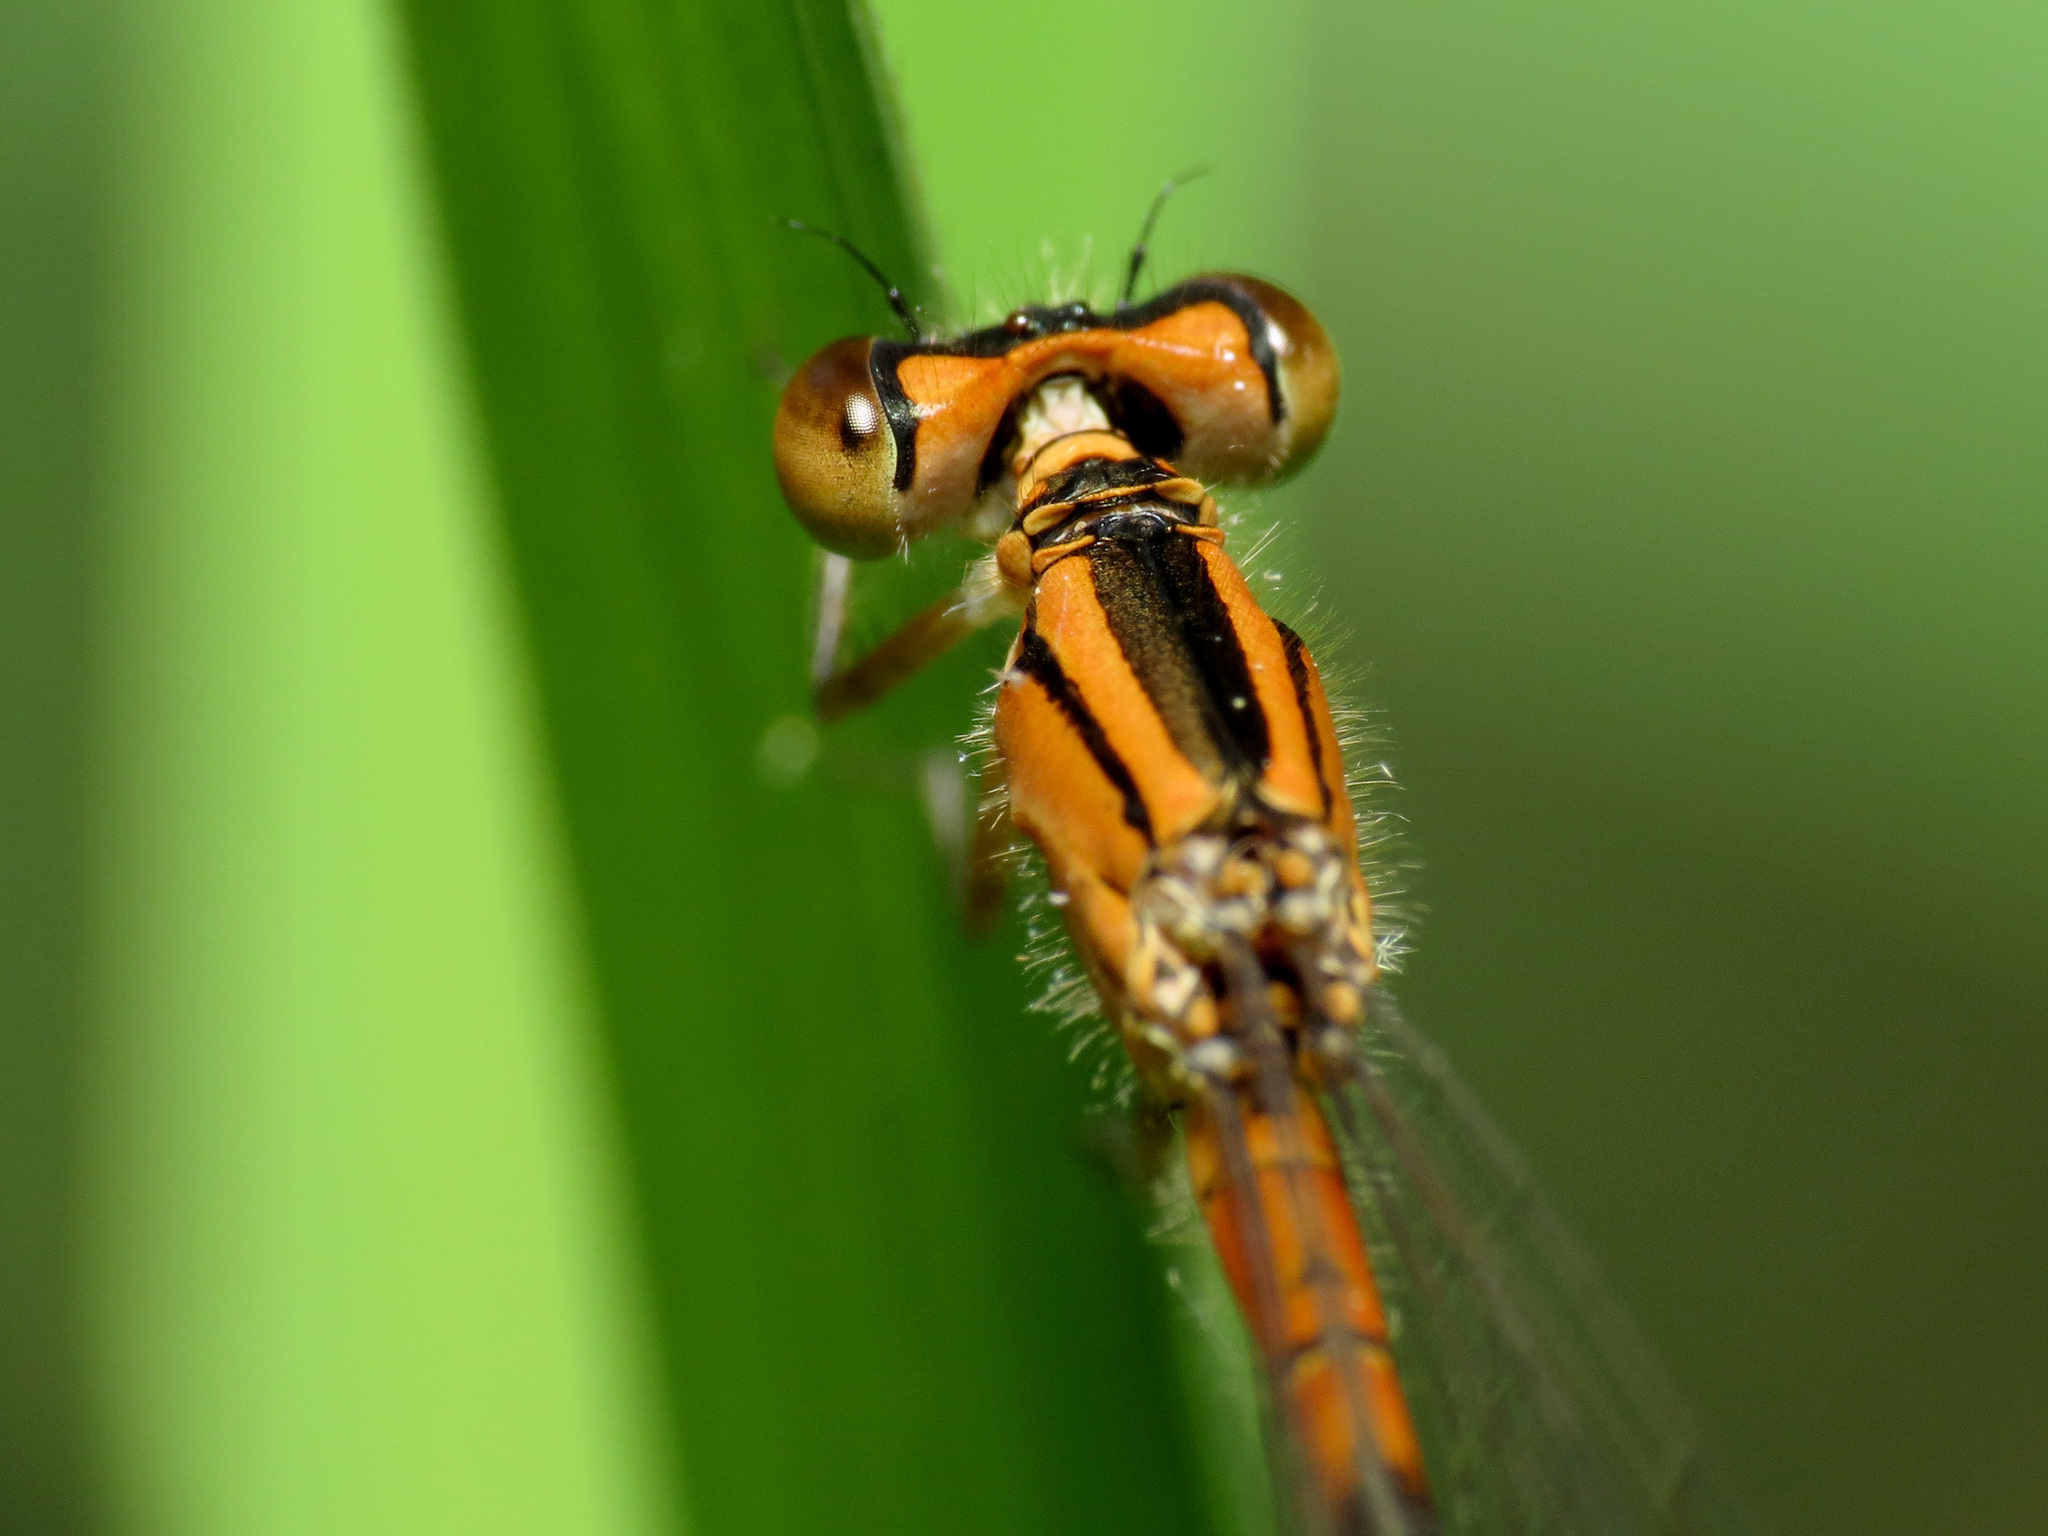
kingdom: Animalia
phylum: Arthropoda
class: Insecta
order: Odonata
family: Coenagrionidae
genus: Ischnura
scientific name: Ischnura verticalis
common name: Eastern forktail
